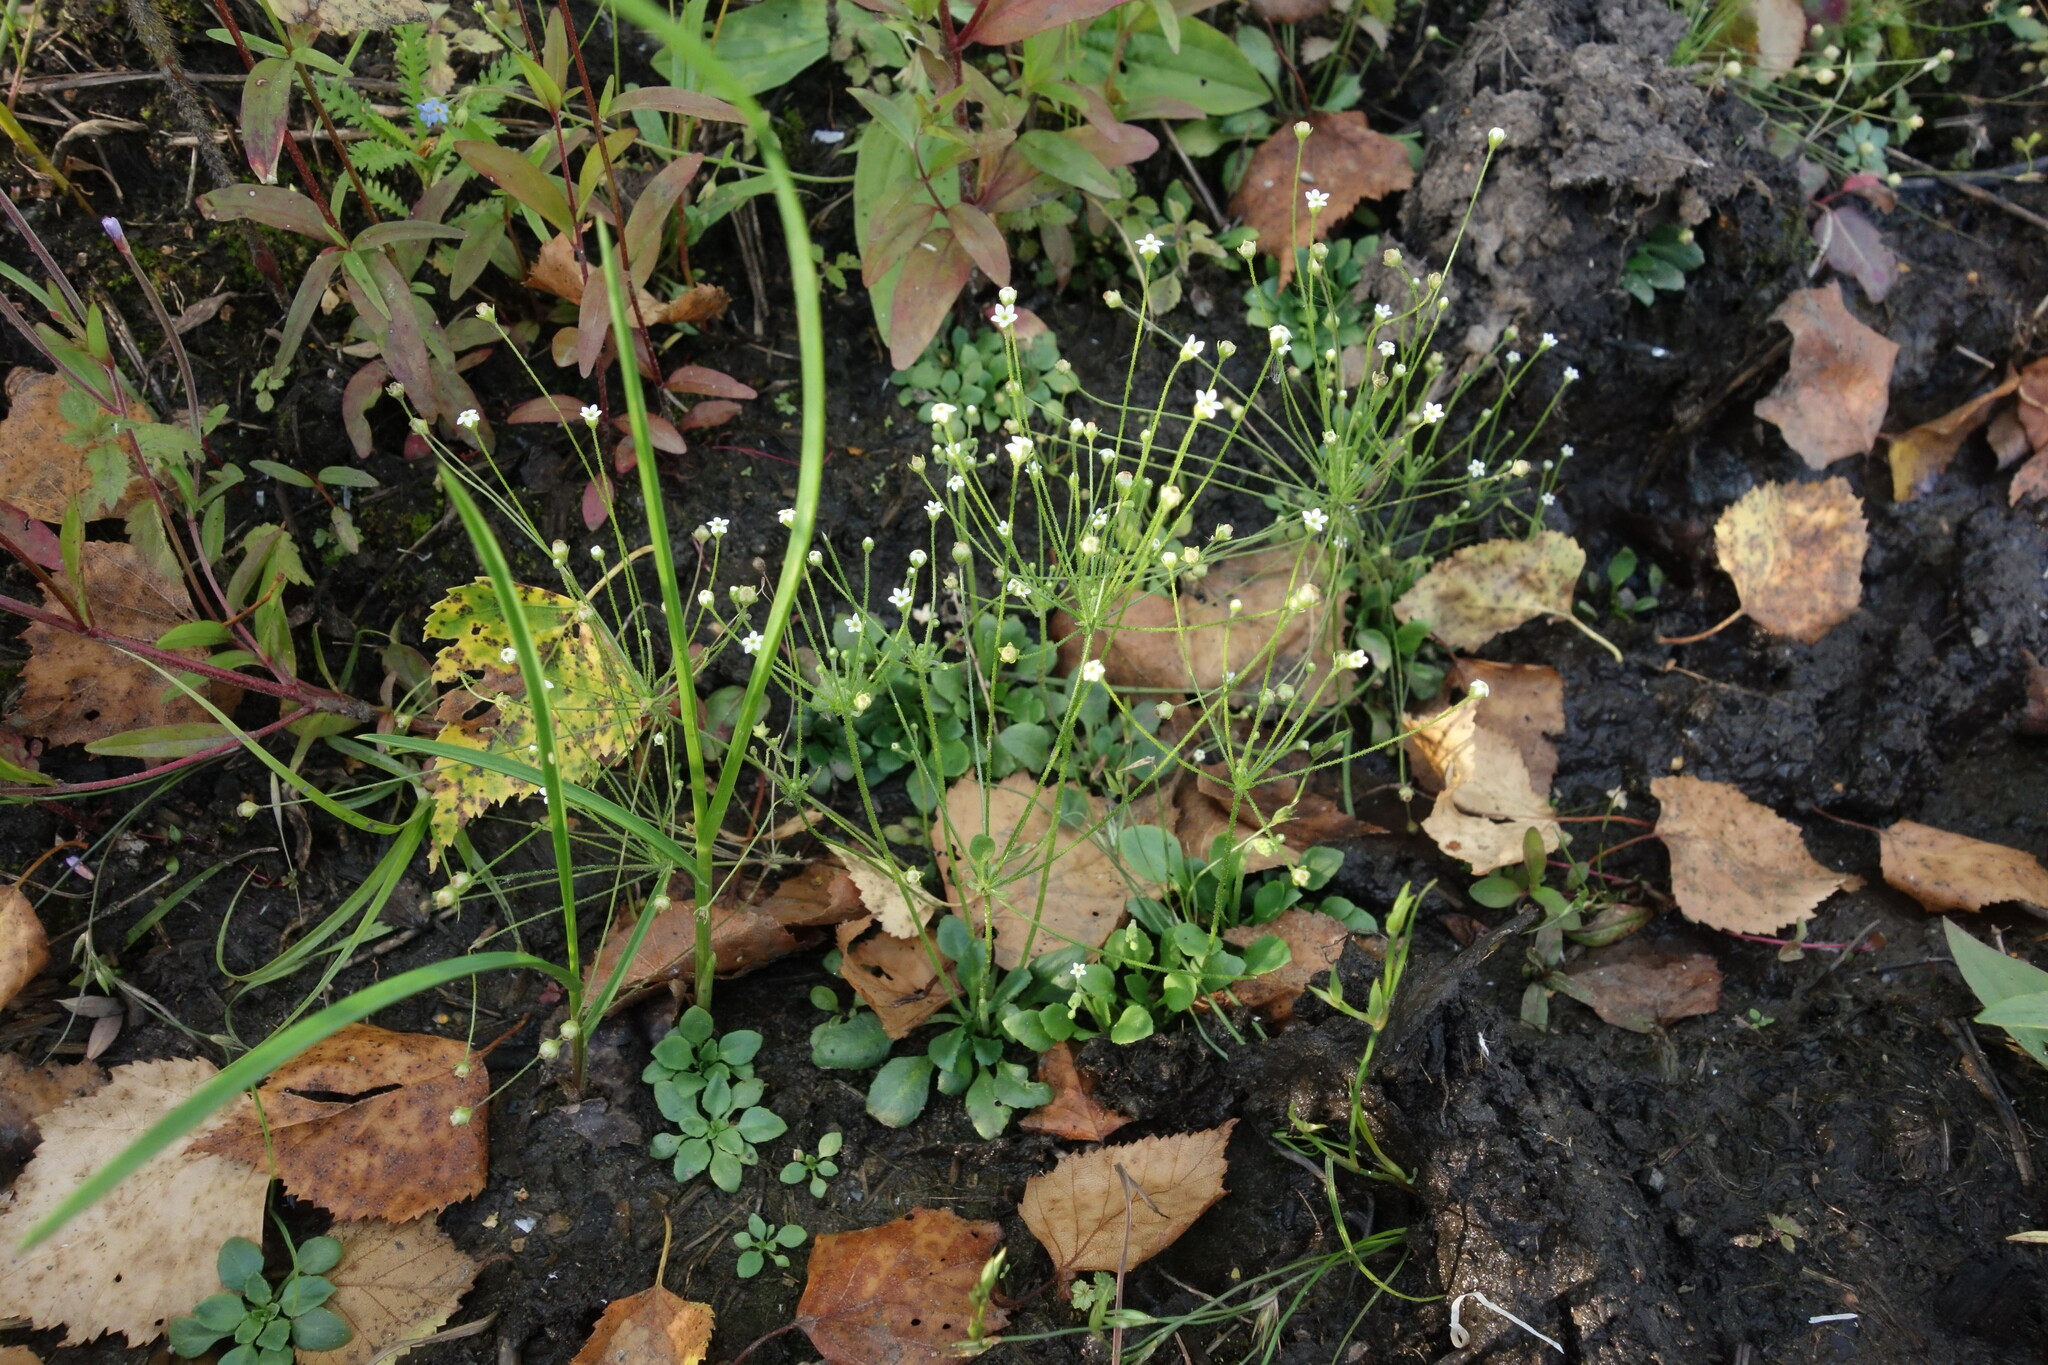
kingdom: Plantae
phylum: Tracheophyta
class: Magnoliopsida
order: Ericales
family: Primulaceae
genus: Androsace
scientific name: Androsace filiformis
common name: Filiform rock jasmine
